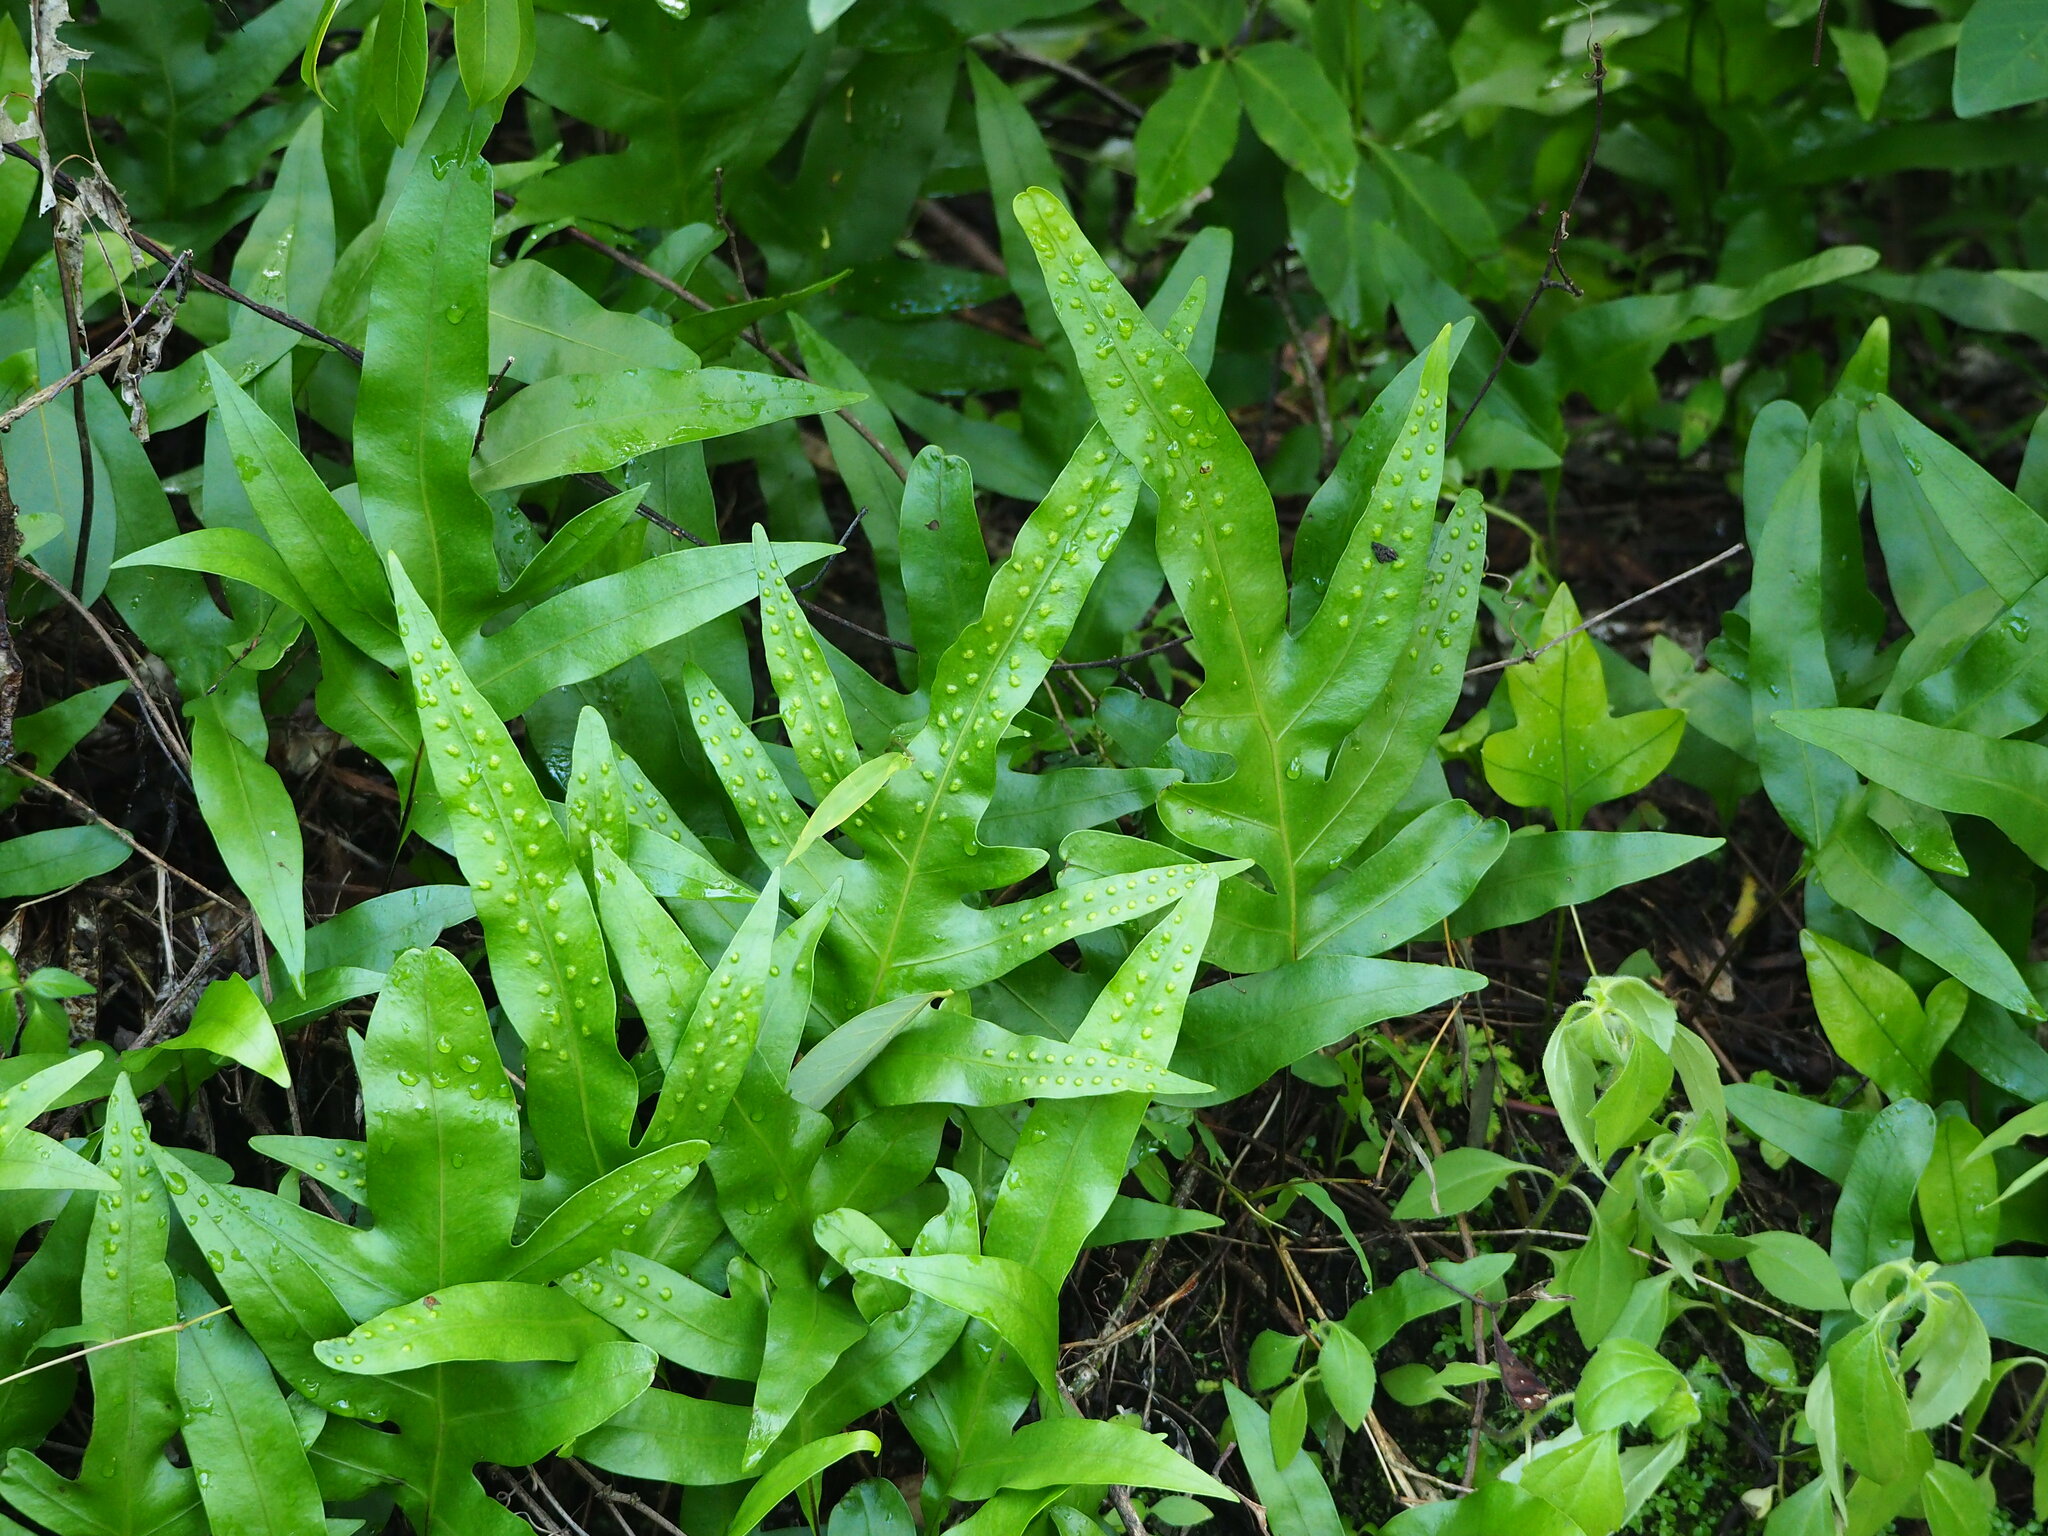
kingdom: Plantae
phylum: Tracheophyta
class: Polypodiopsida
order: Polypodiales
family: Polypodiaceae
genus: Microsorum
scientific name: Microsorum scolopendria
